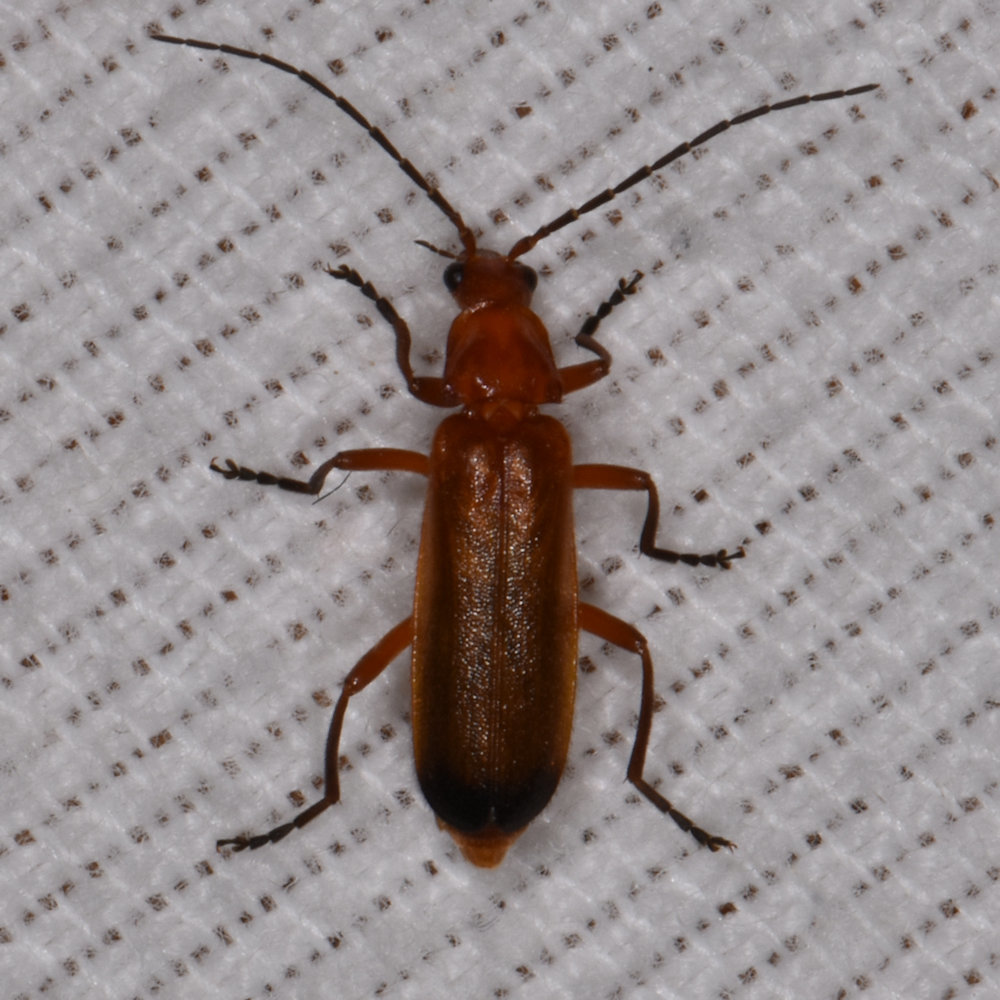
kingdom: Animalia
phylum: Arthropoda
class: Insecta
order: Coleoptera
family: Cantharidae
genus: Rhagonycha
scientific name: Rhagonycha fulva
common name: Common red soldier beetle
